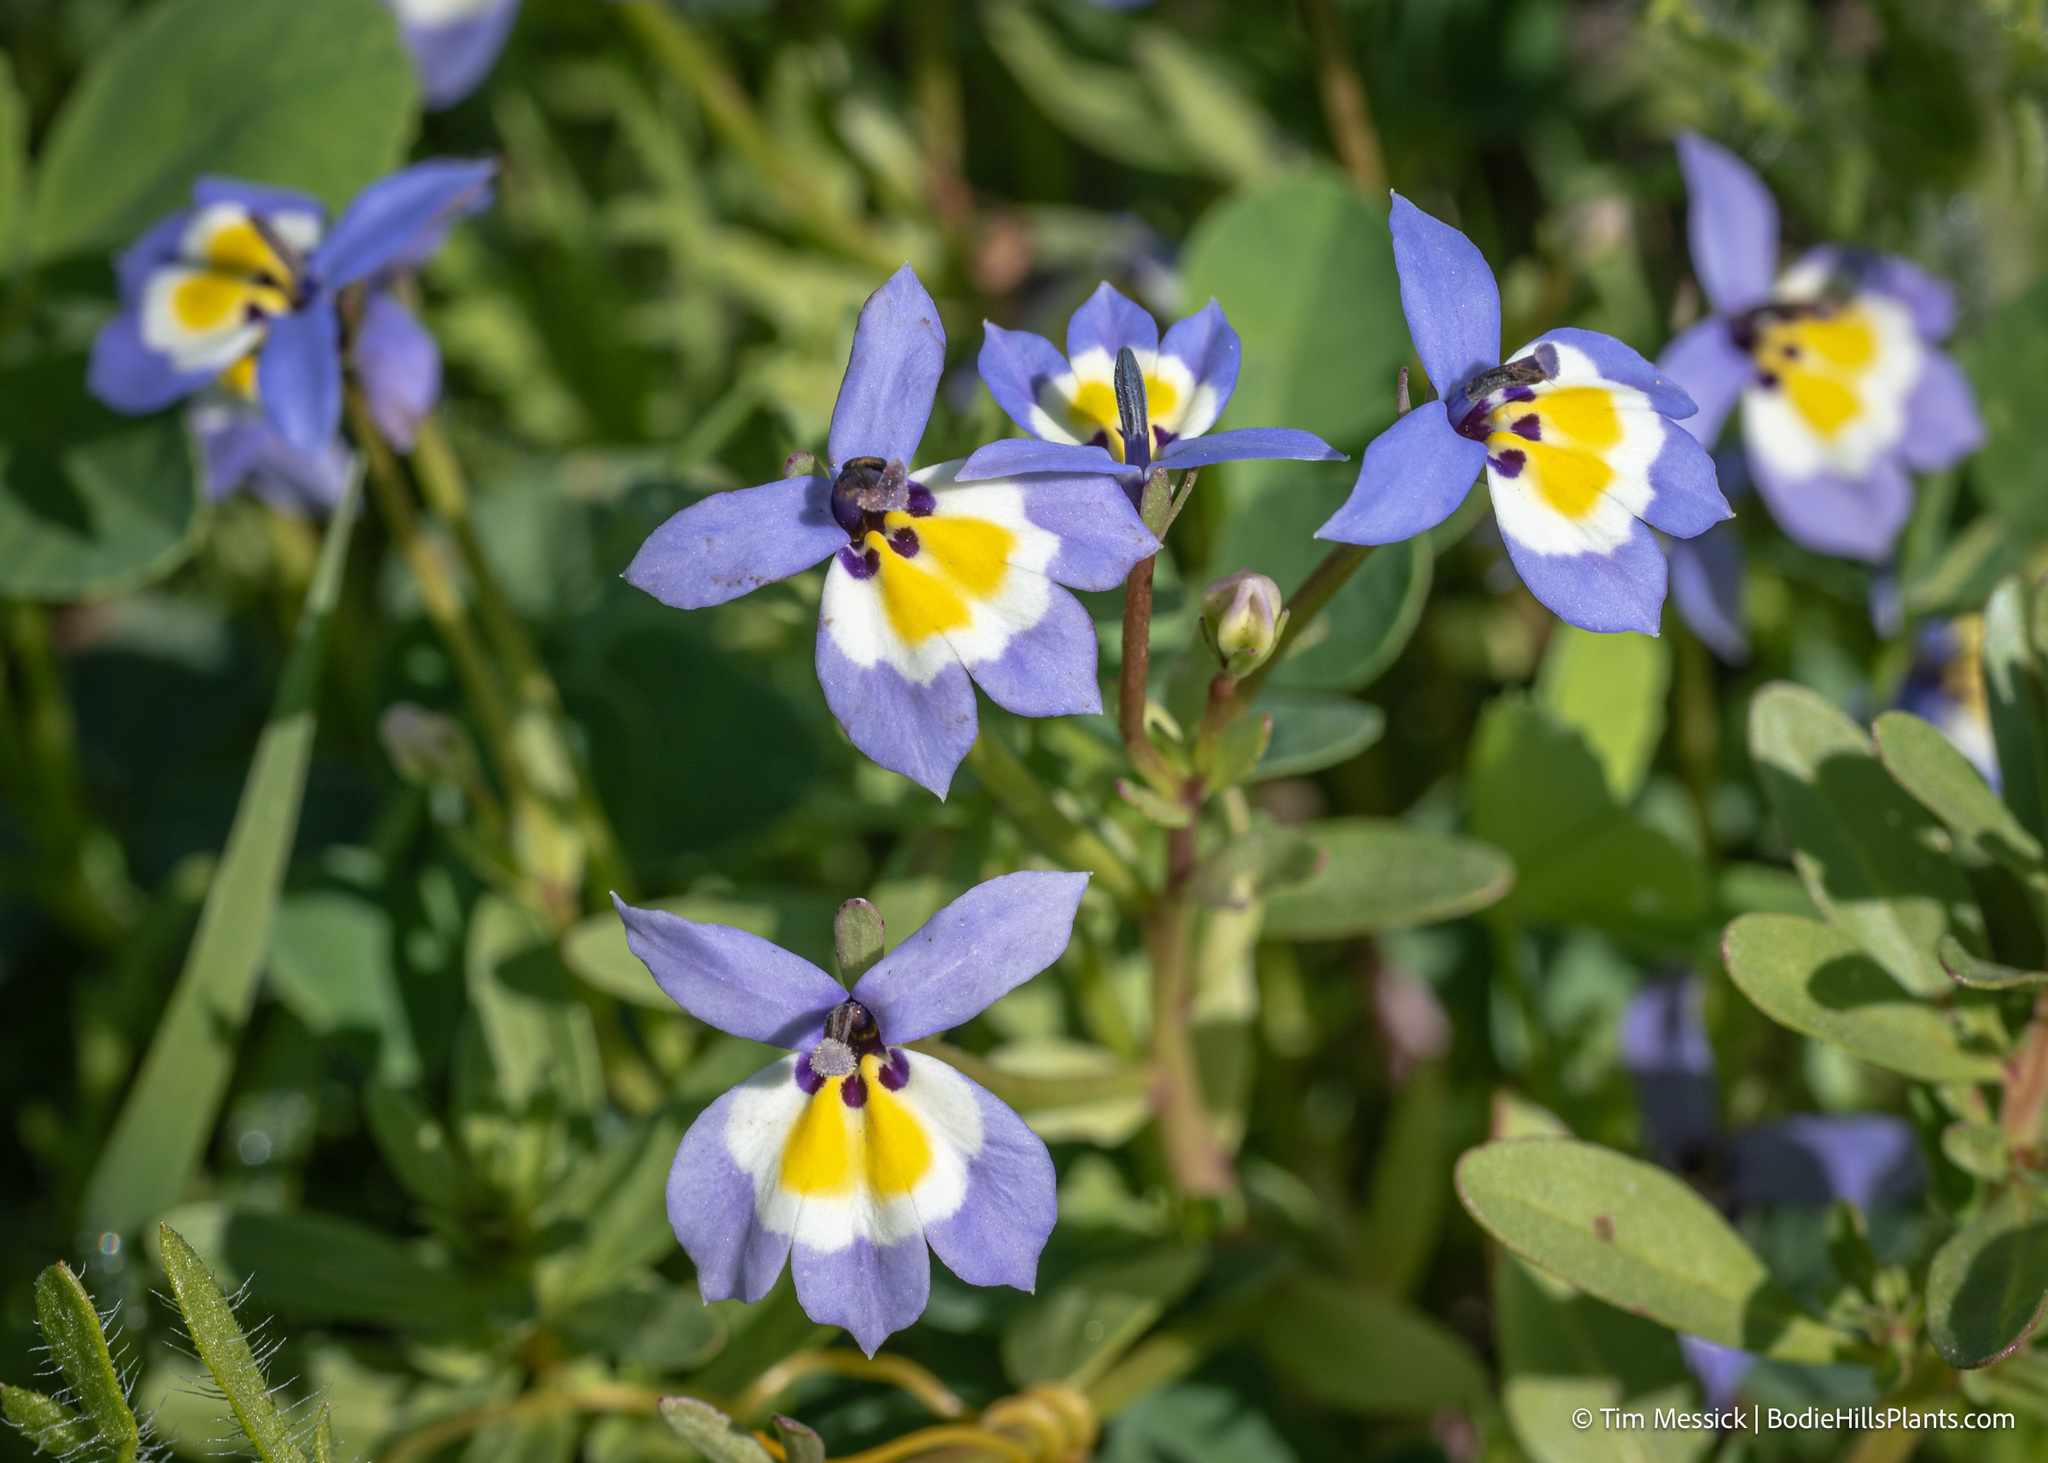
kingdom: Plantae
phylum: Tracheophyta
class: Magnoliopsida
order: Asterales
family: Campanulaceae
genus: Downingia
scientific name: Downingia pulchella
